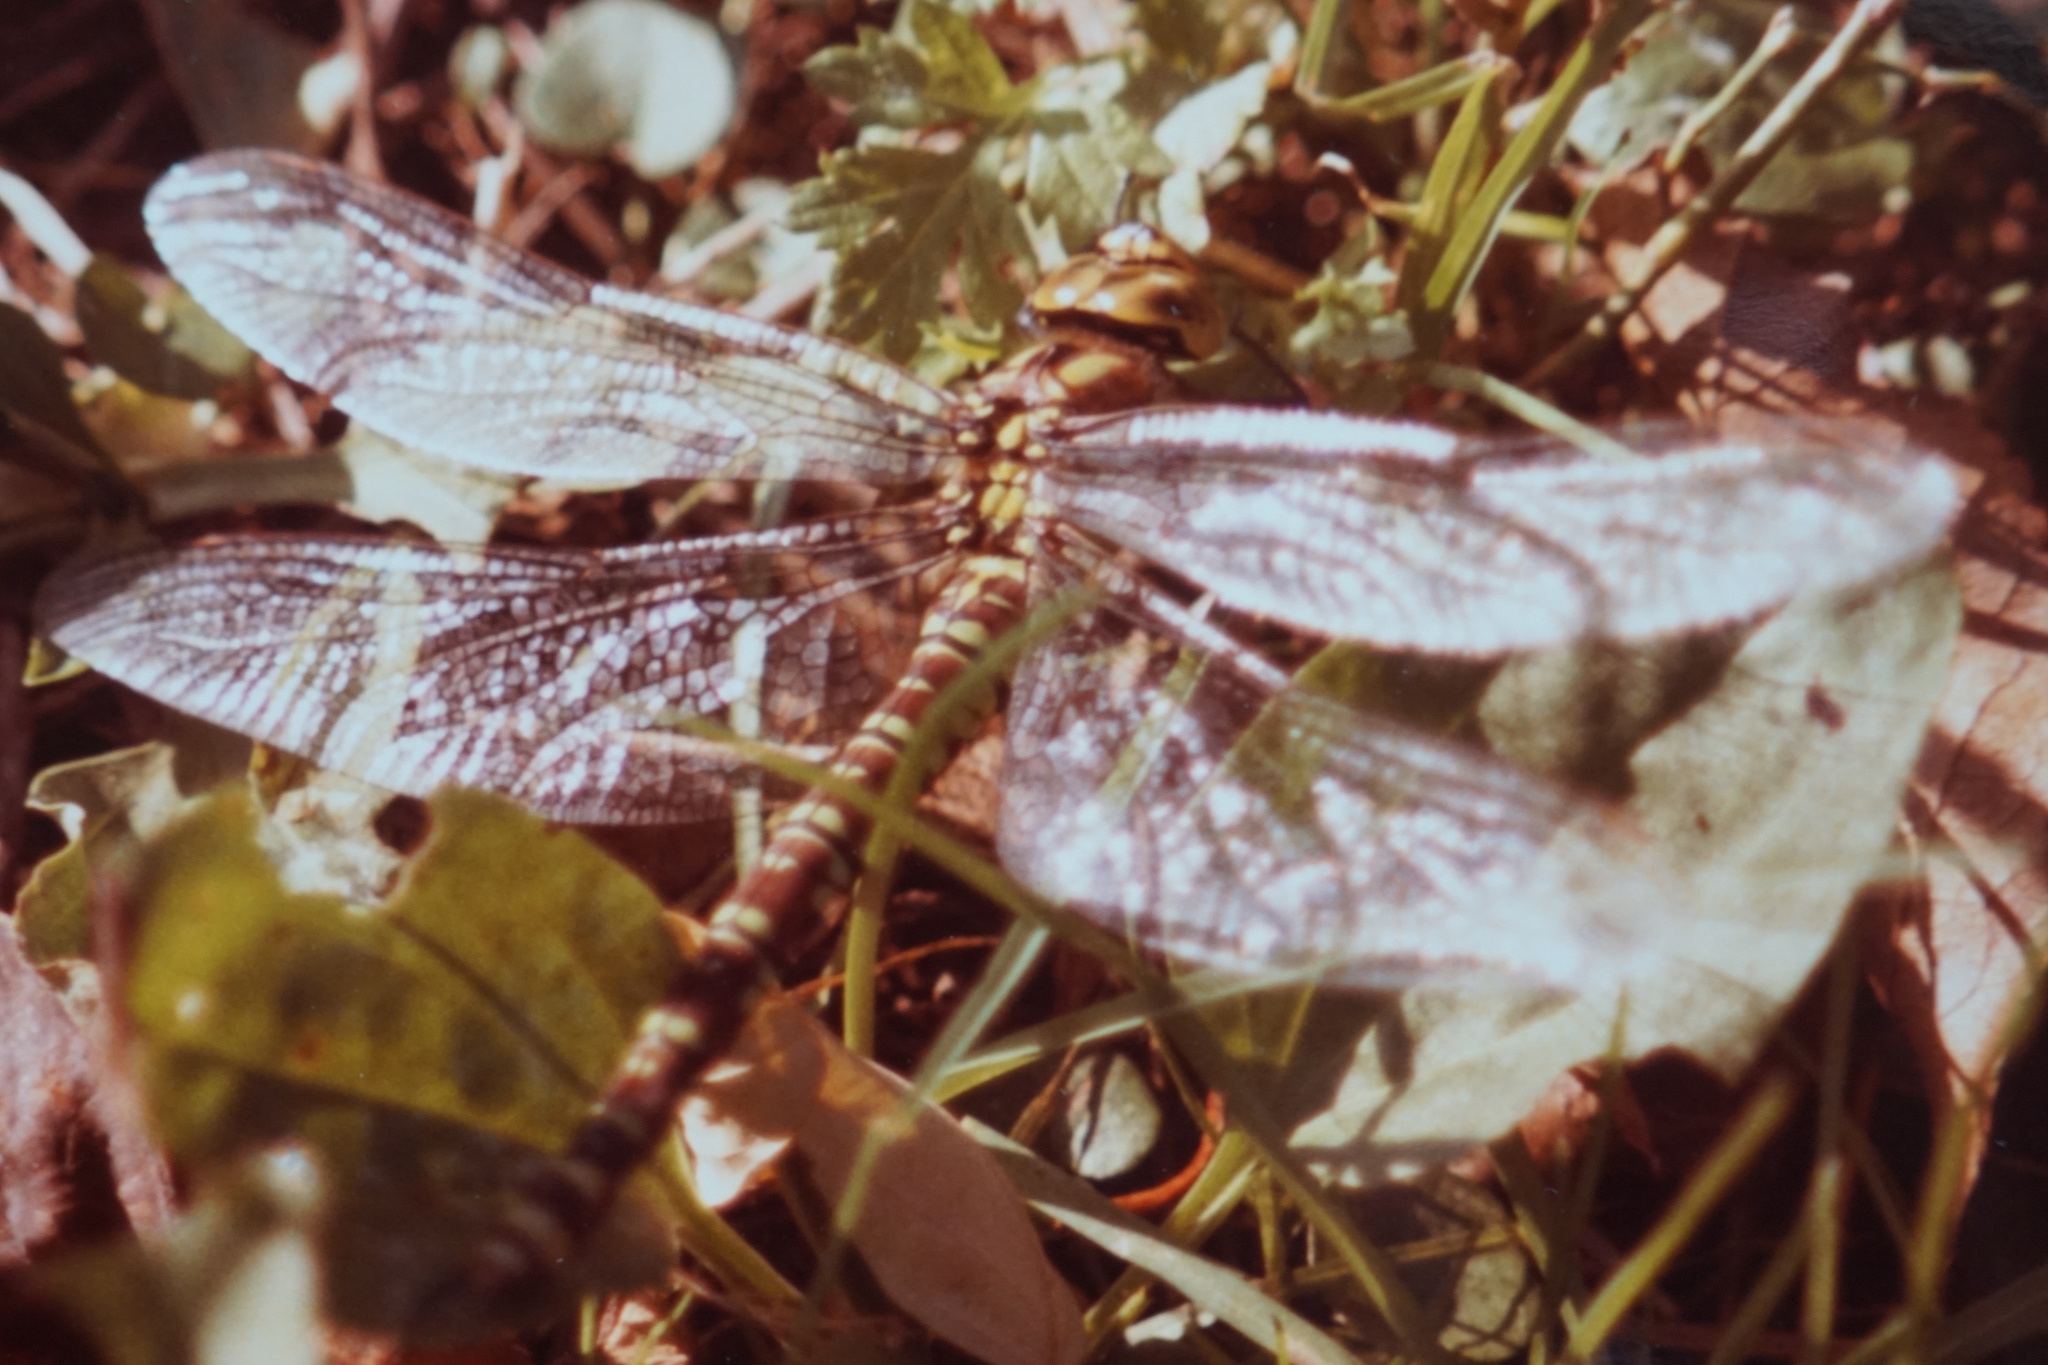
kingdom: Animalia
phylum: Arthropoda
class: Insecta
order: Odonata
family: Aeshnidae
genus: Aeshna
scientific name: Aeshna cyanea
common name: Southern hawker
